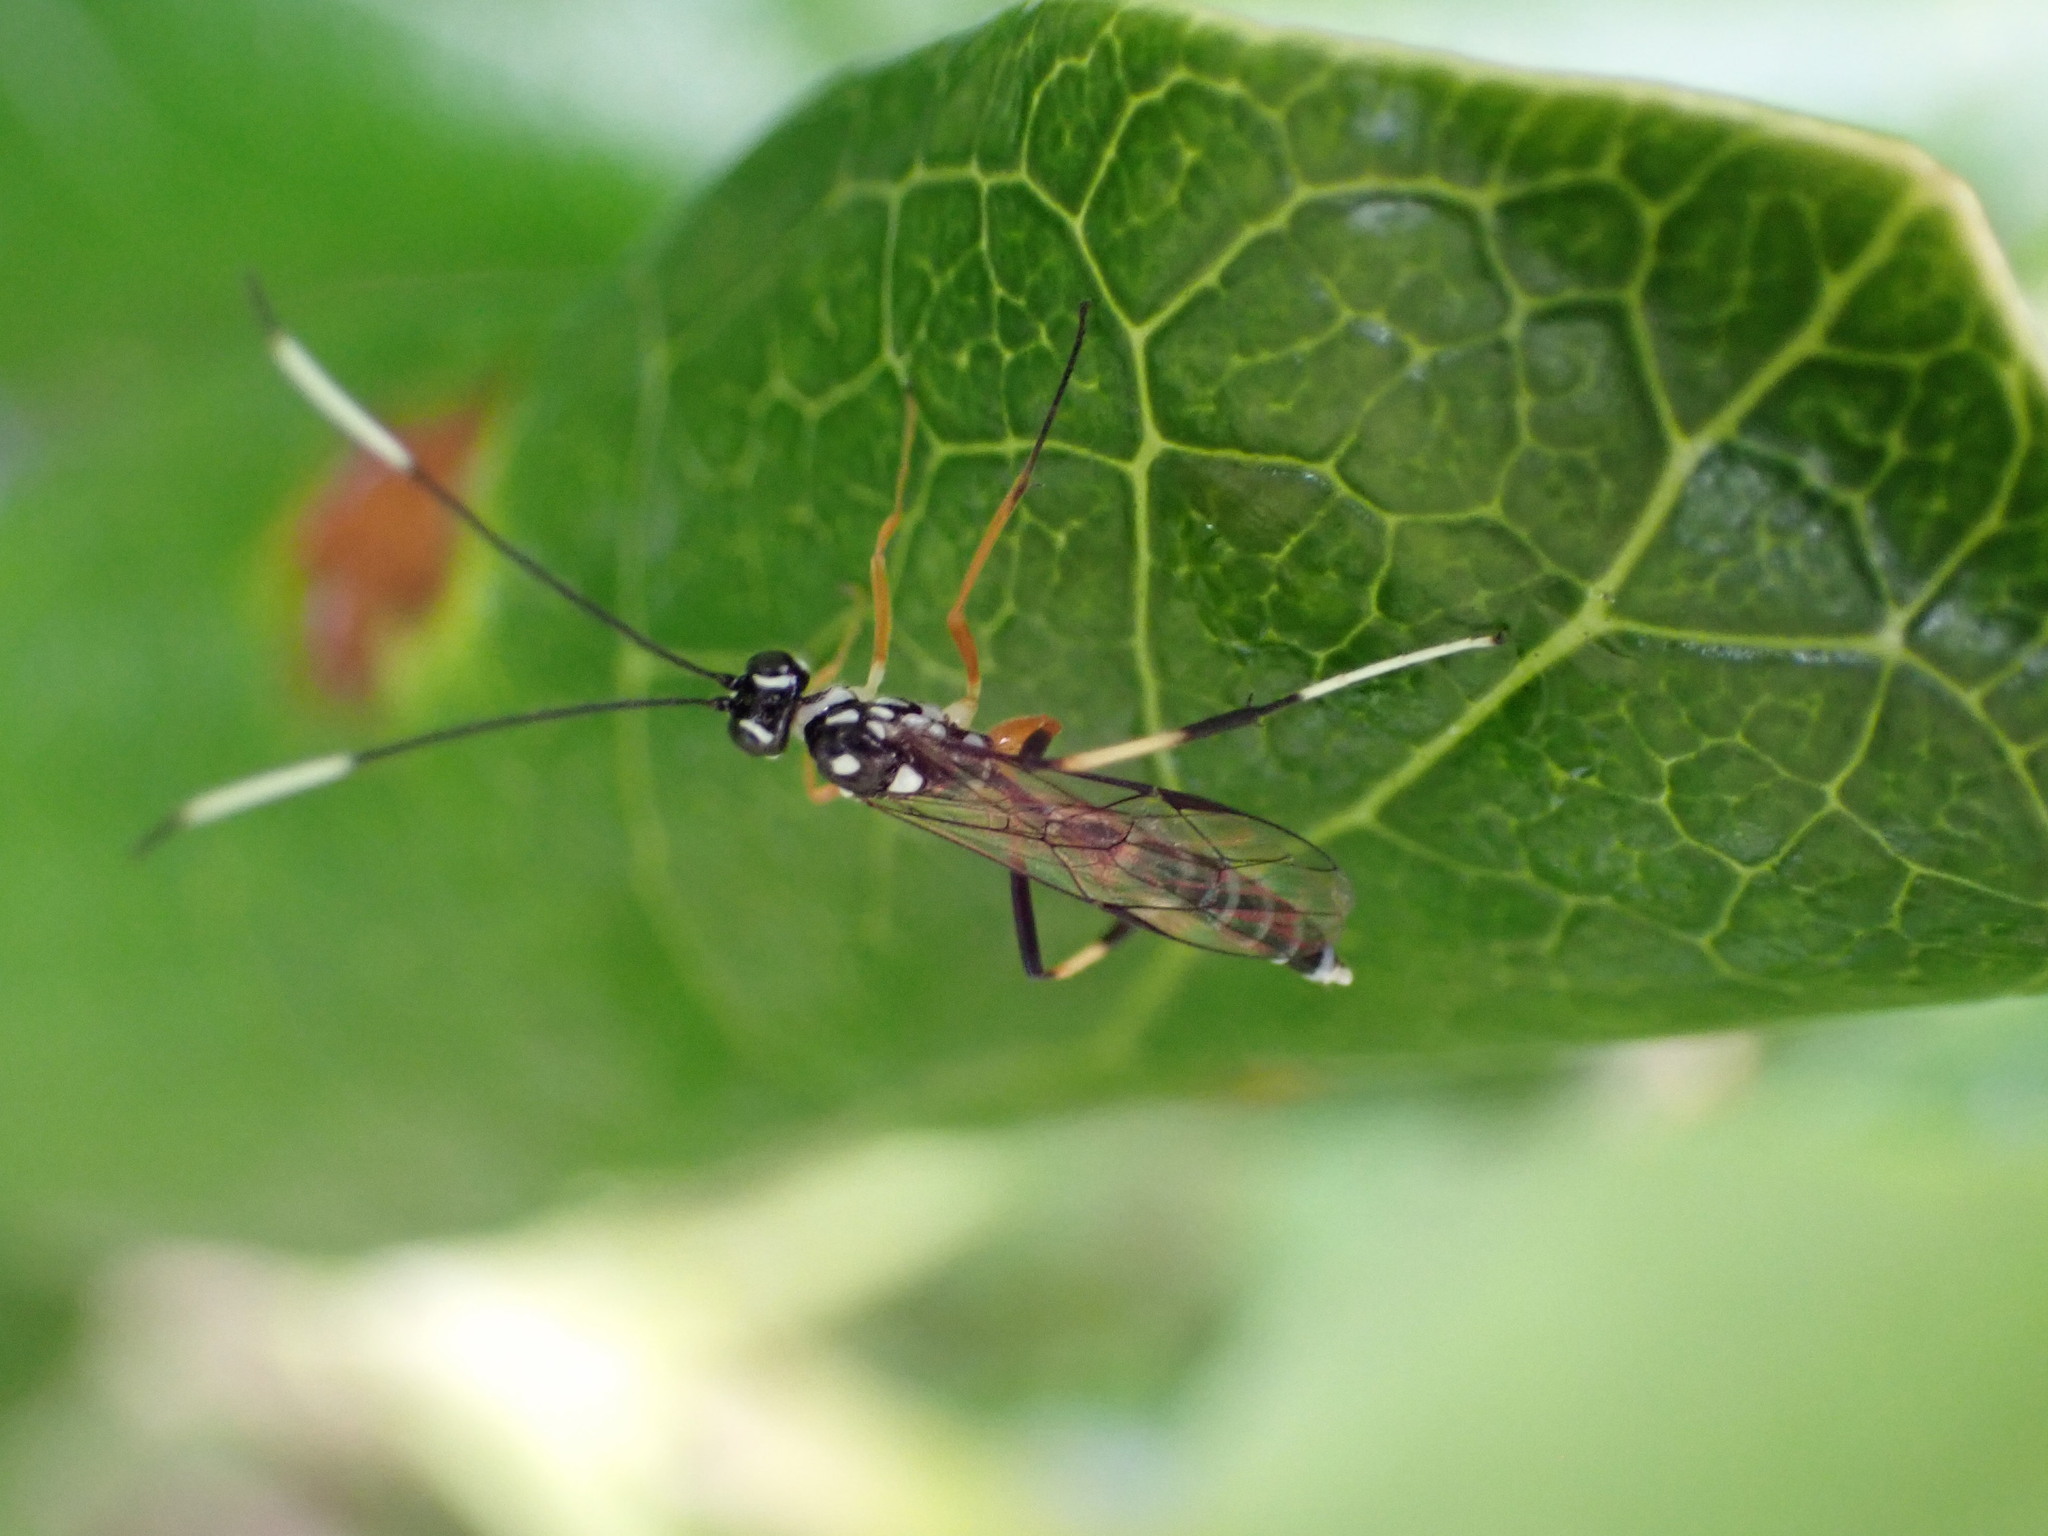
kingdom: Animalia
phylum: Arthropoda
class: Insecta
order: Hymenoptera
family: Ichneumonidae
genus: Xanthocryptus
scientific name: Xanthocryptus novozealandicus
